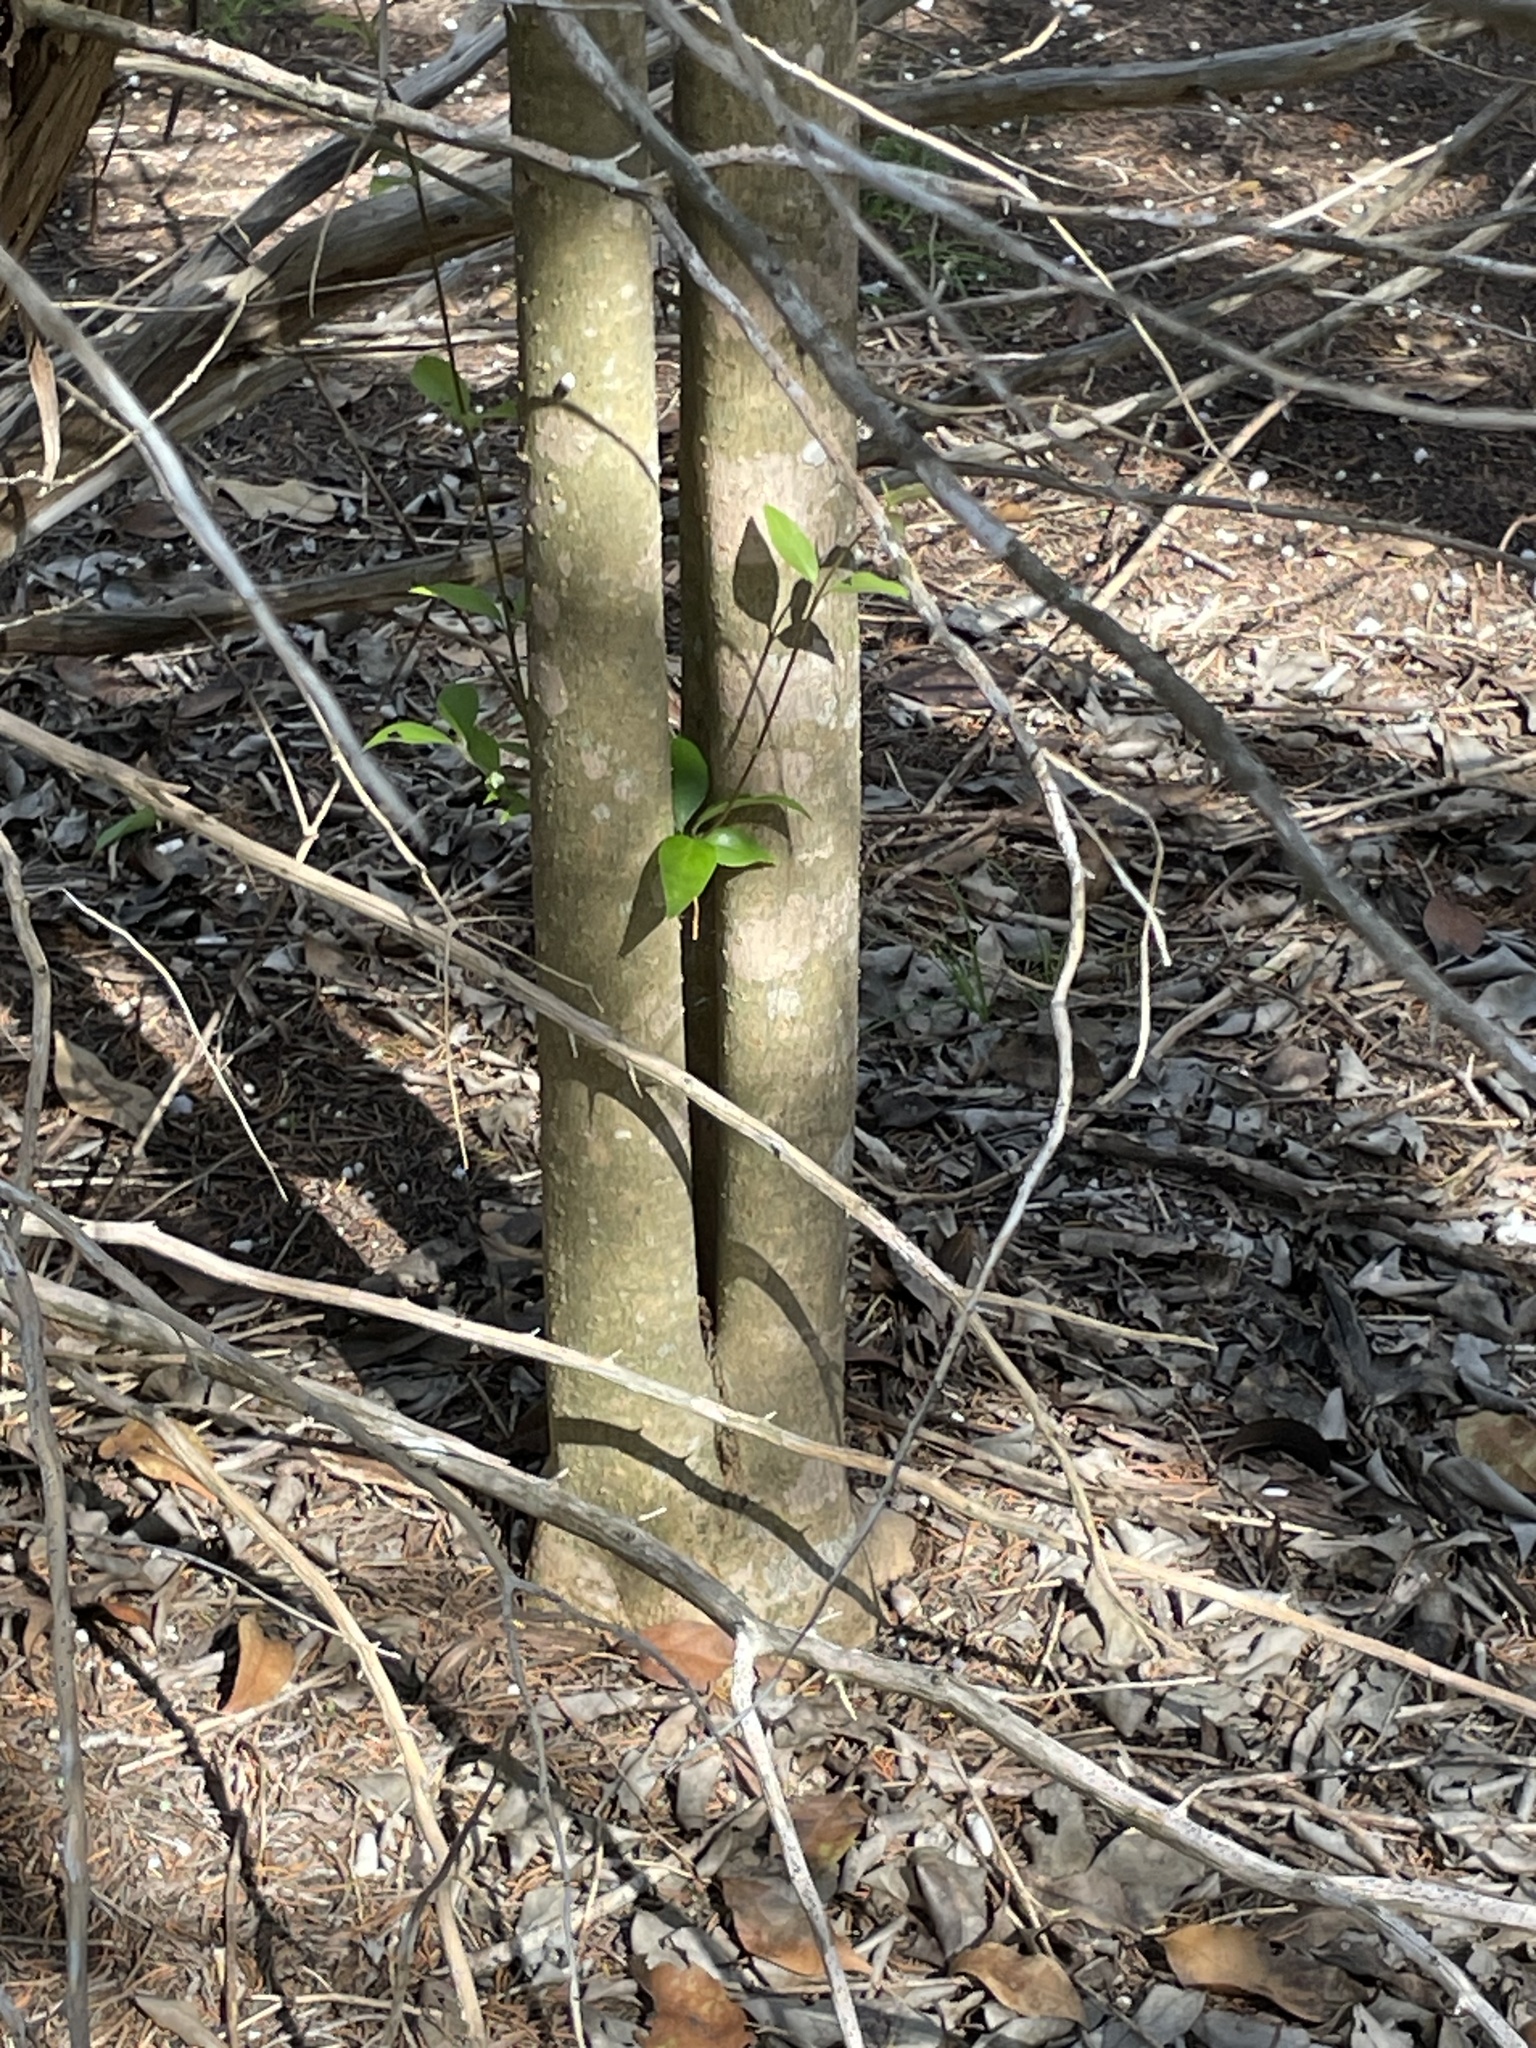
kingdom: Plantae
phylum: Tracheophyta
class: Magnoliopsida
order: Lamiales
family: Oleaceae
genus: Ligustrum
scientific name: Ligustrum lucidum
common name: Glossy privet
